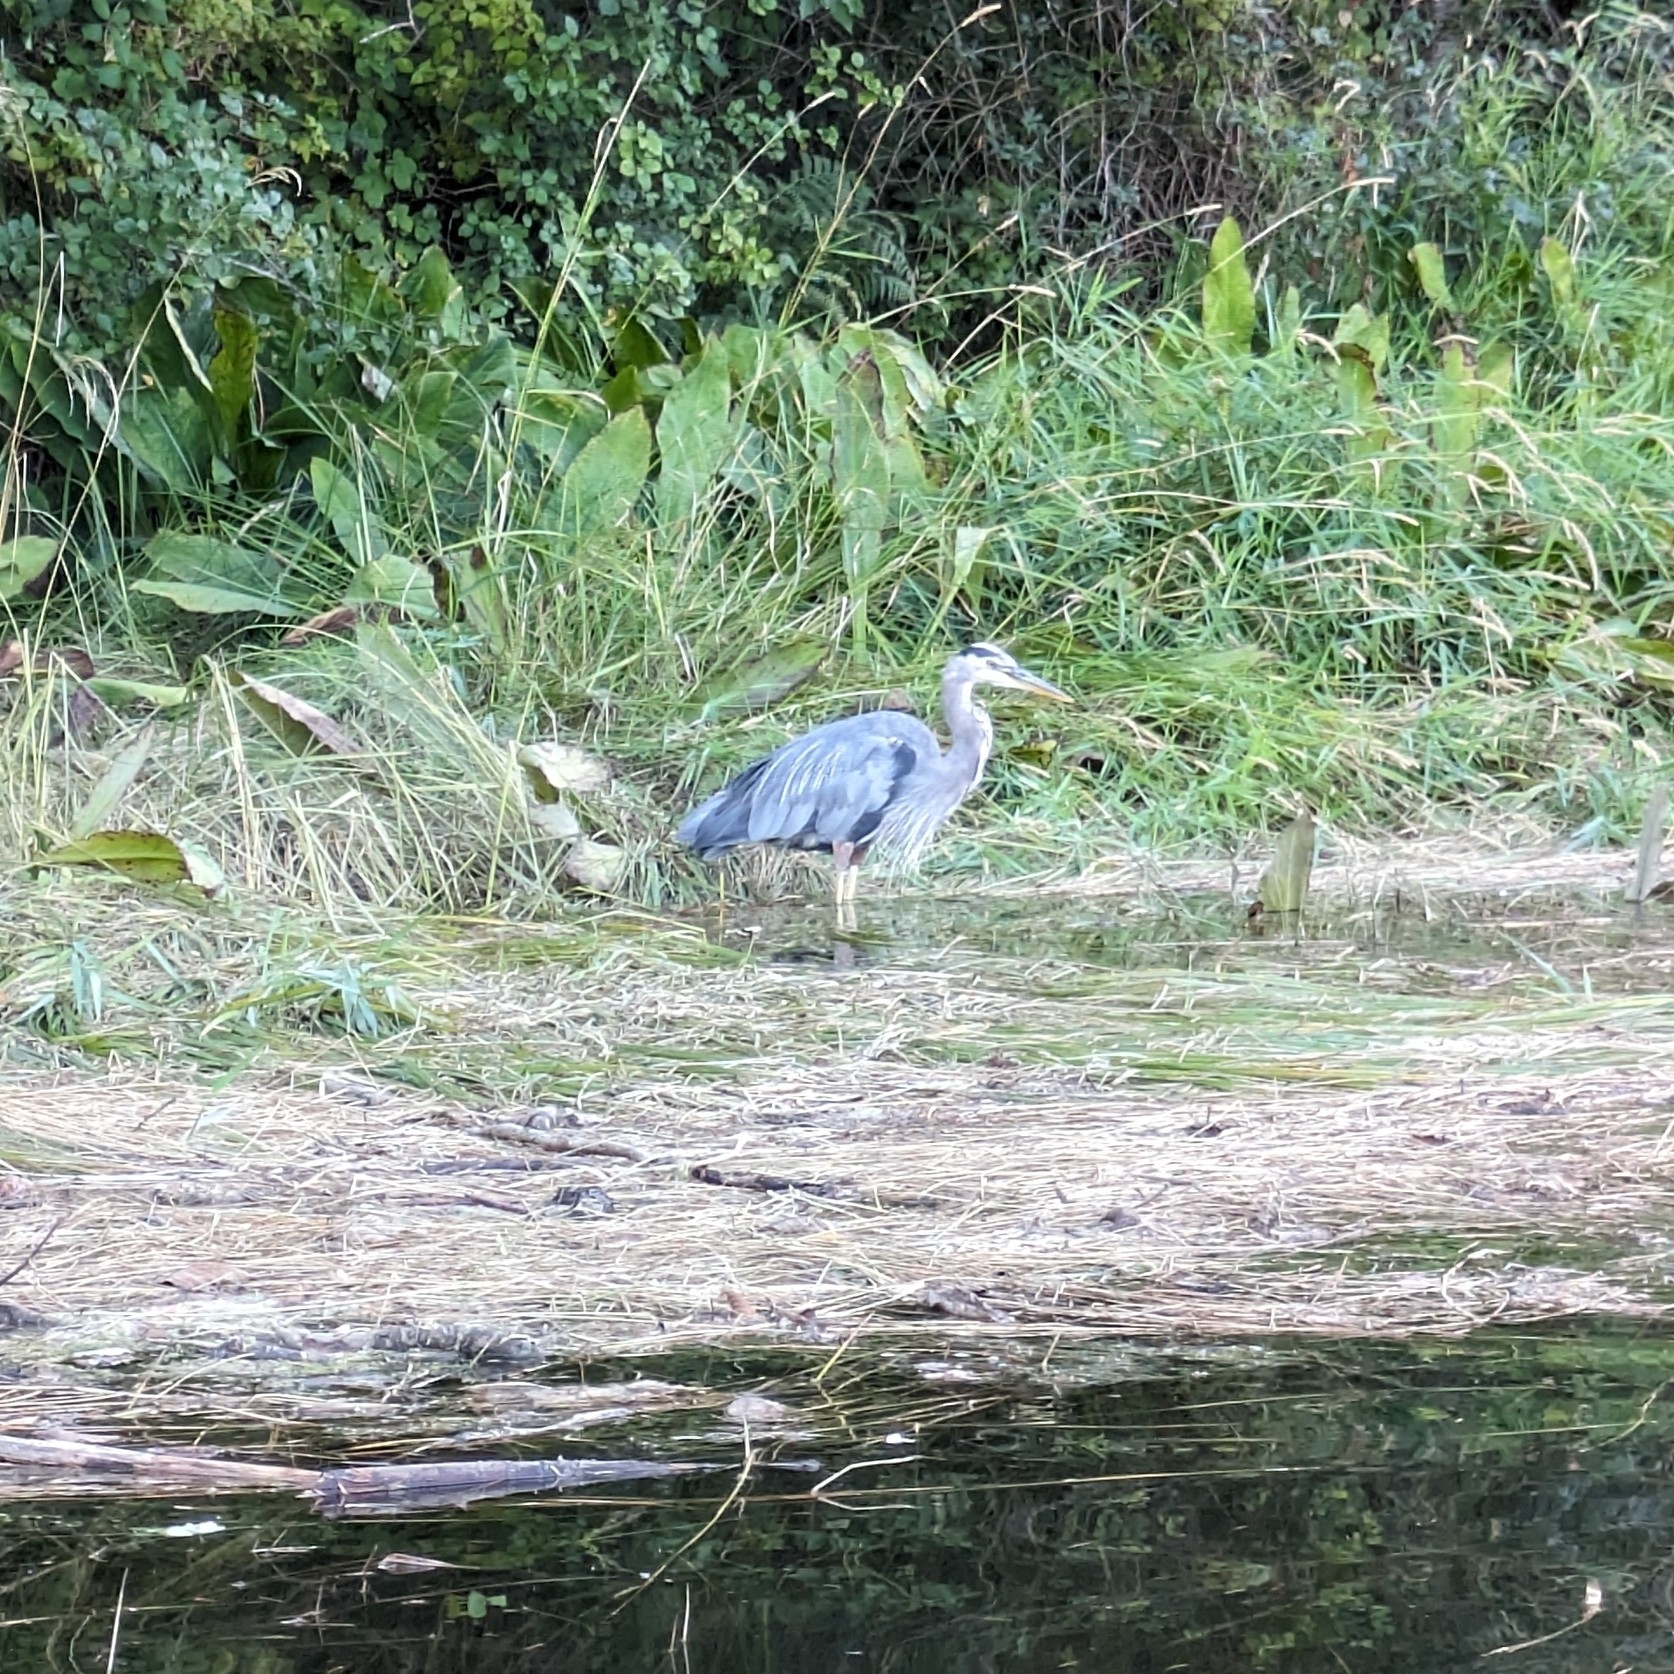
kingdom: Animalia
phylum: Chordata
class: Aves
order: Pelecaniformes
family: Ardeidae
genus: Ardea
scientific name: Ardea herodias
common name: Great blue heron
